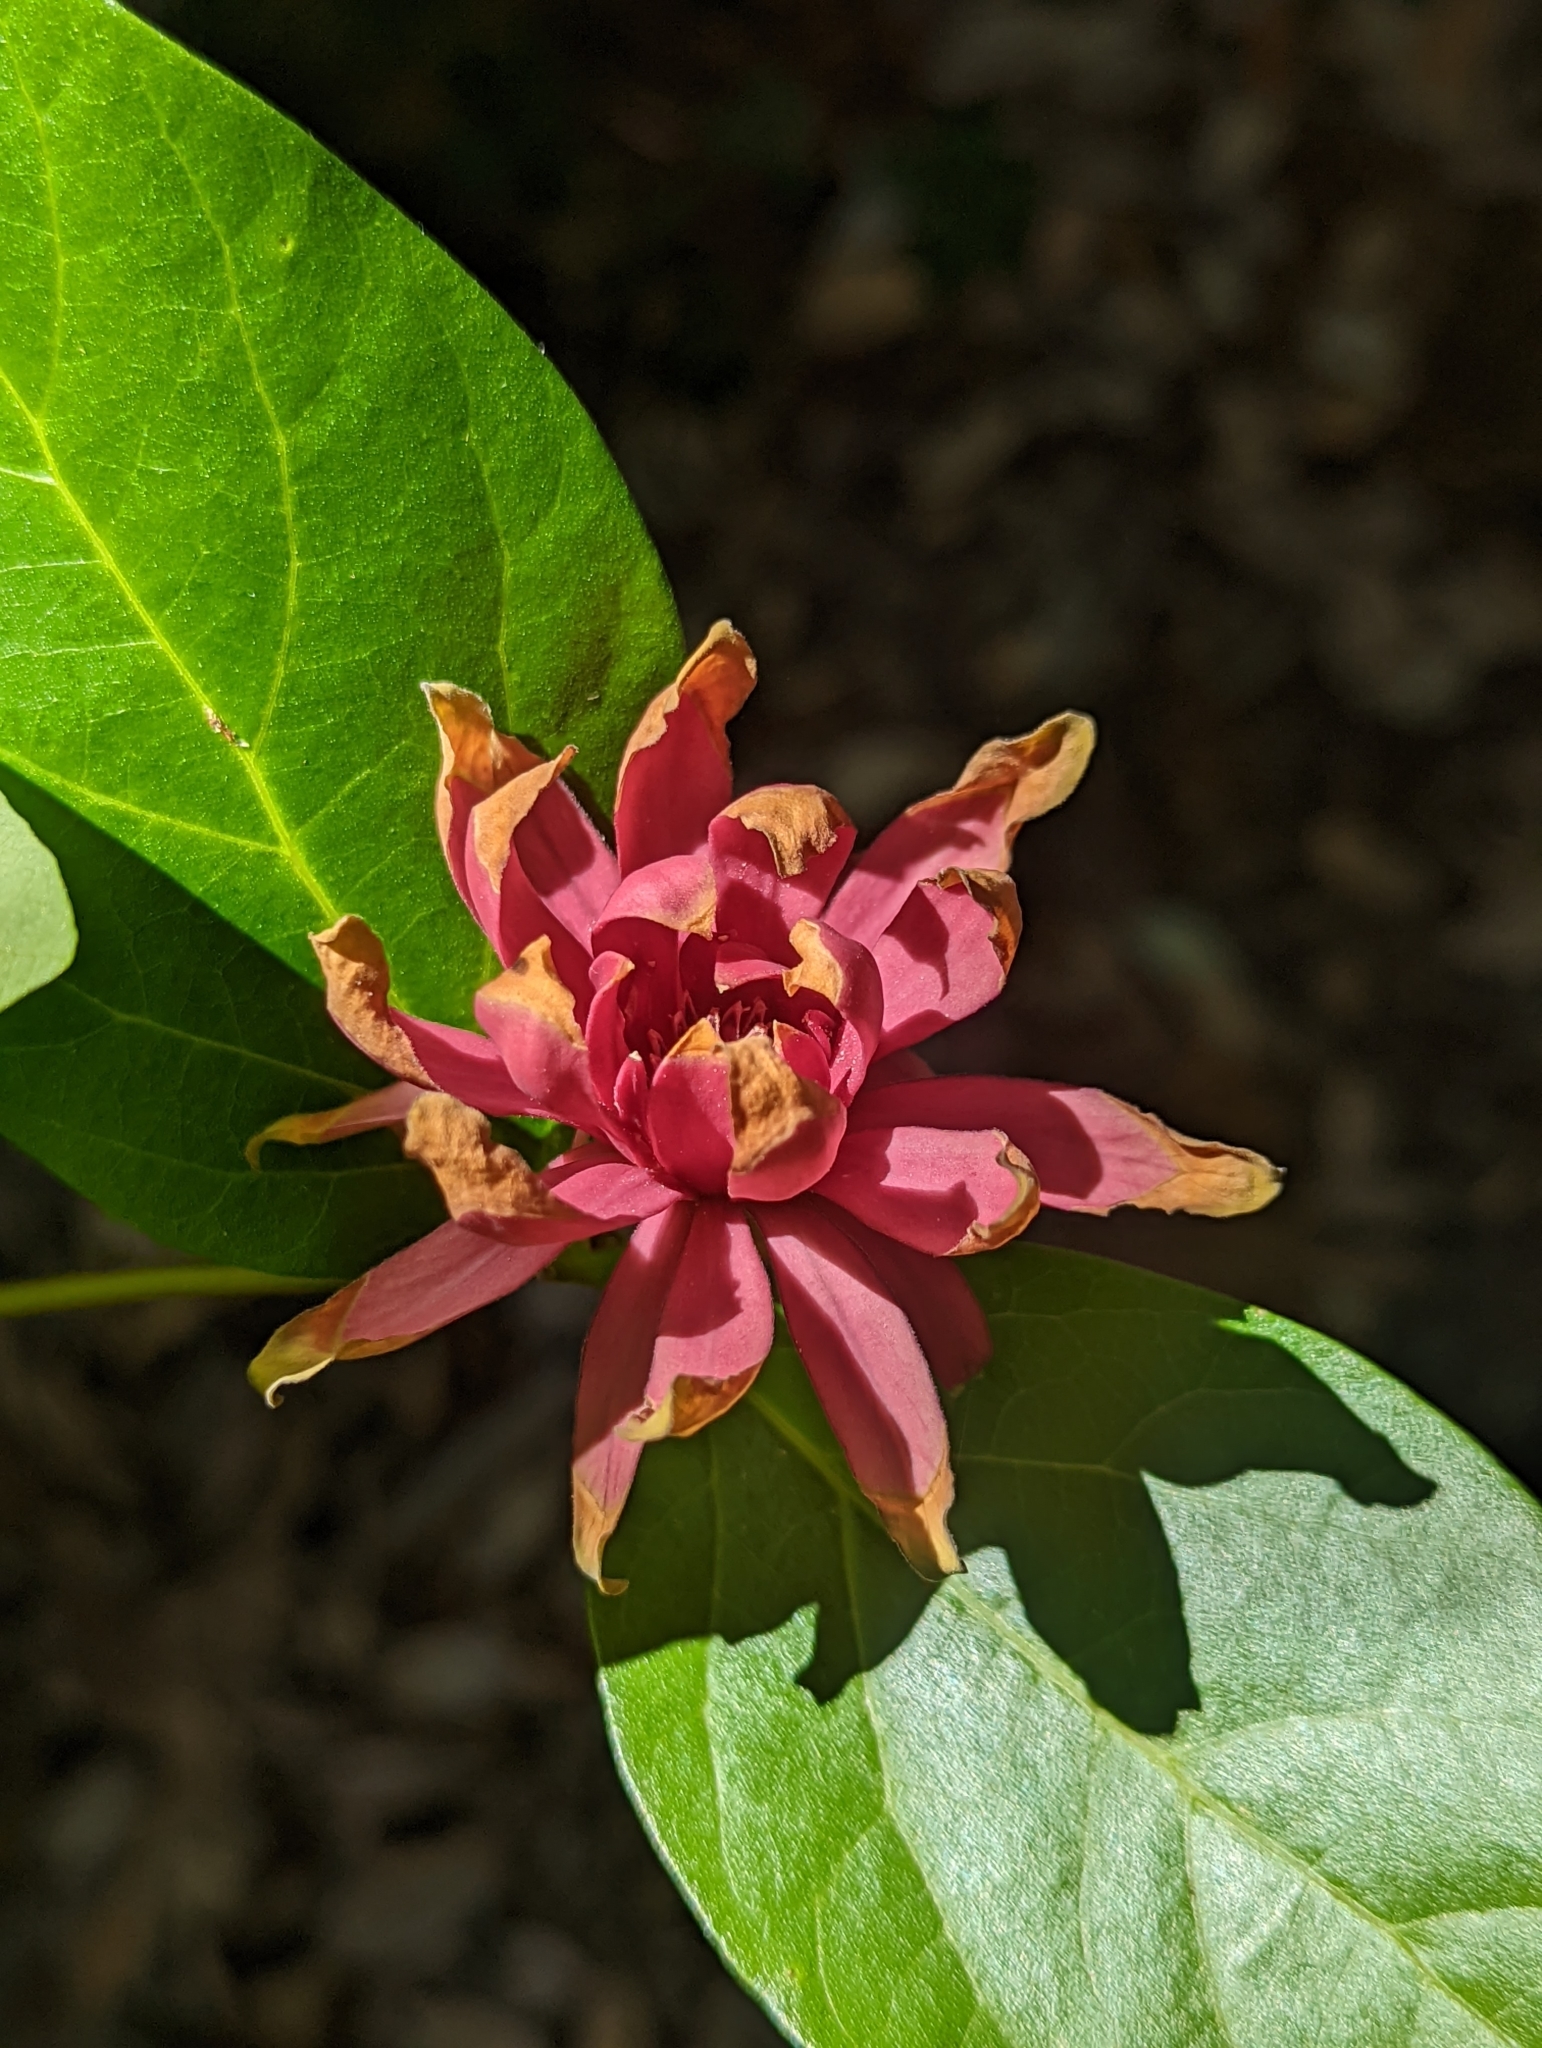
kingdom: Plantae
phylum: Tracheophyta
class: Magnoliopsida
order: Laurales
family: Calycanthaceae
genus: Calycanthus
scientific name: Calycanthus occidentalis
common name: California spicebush
